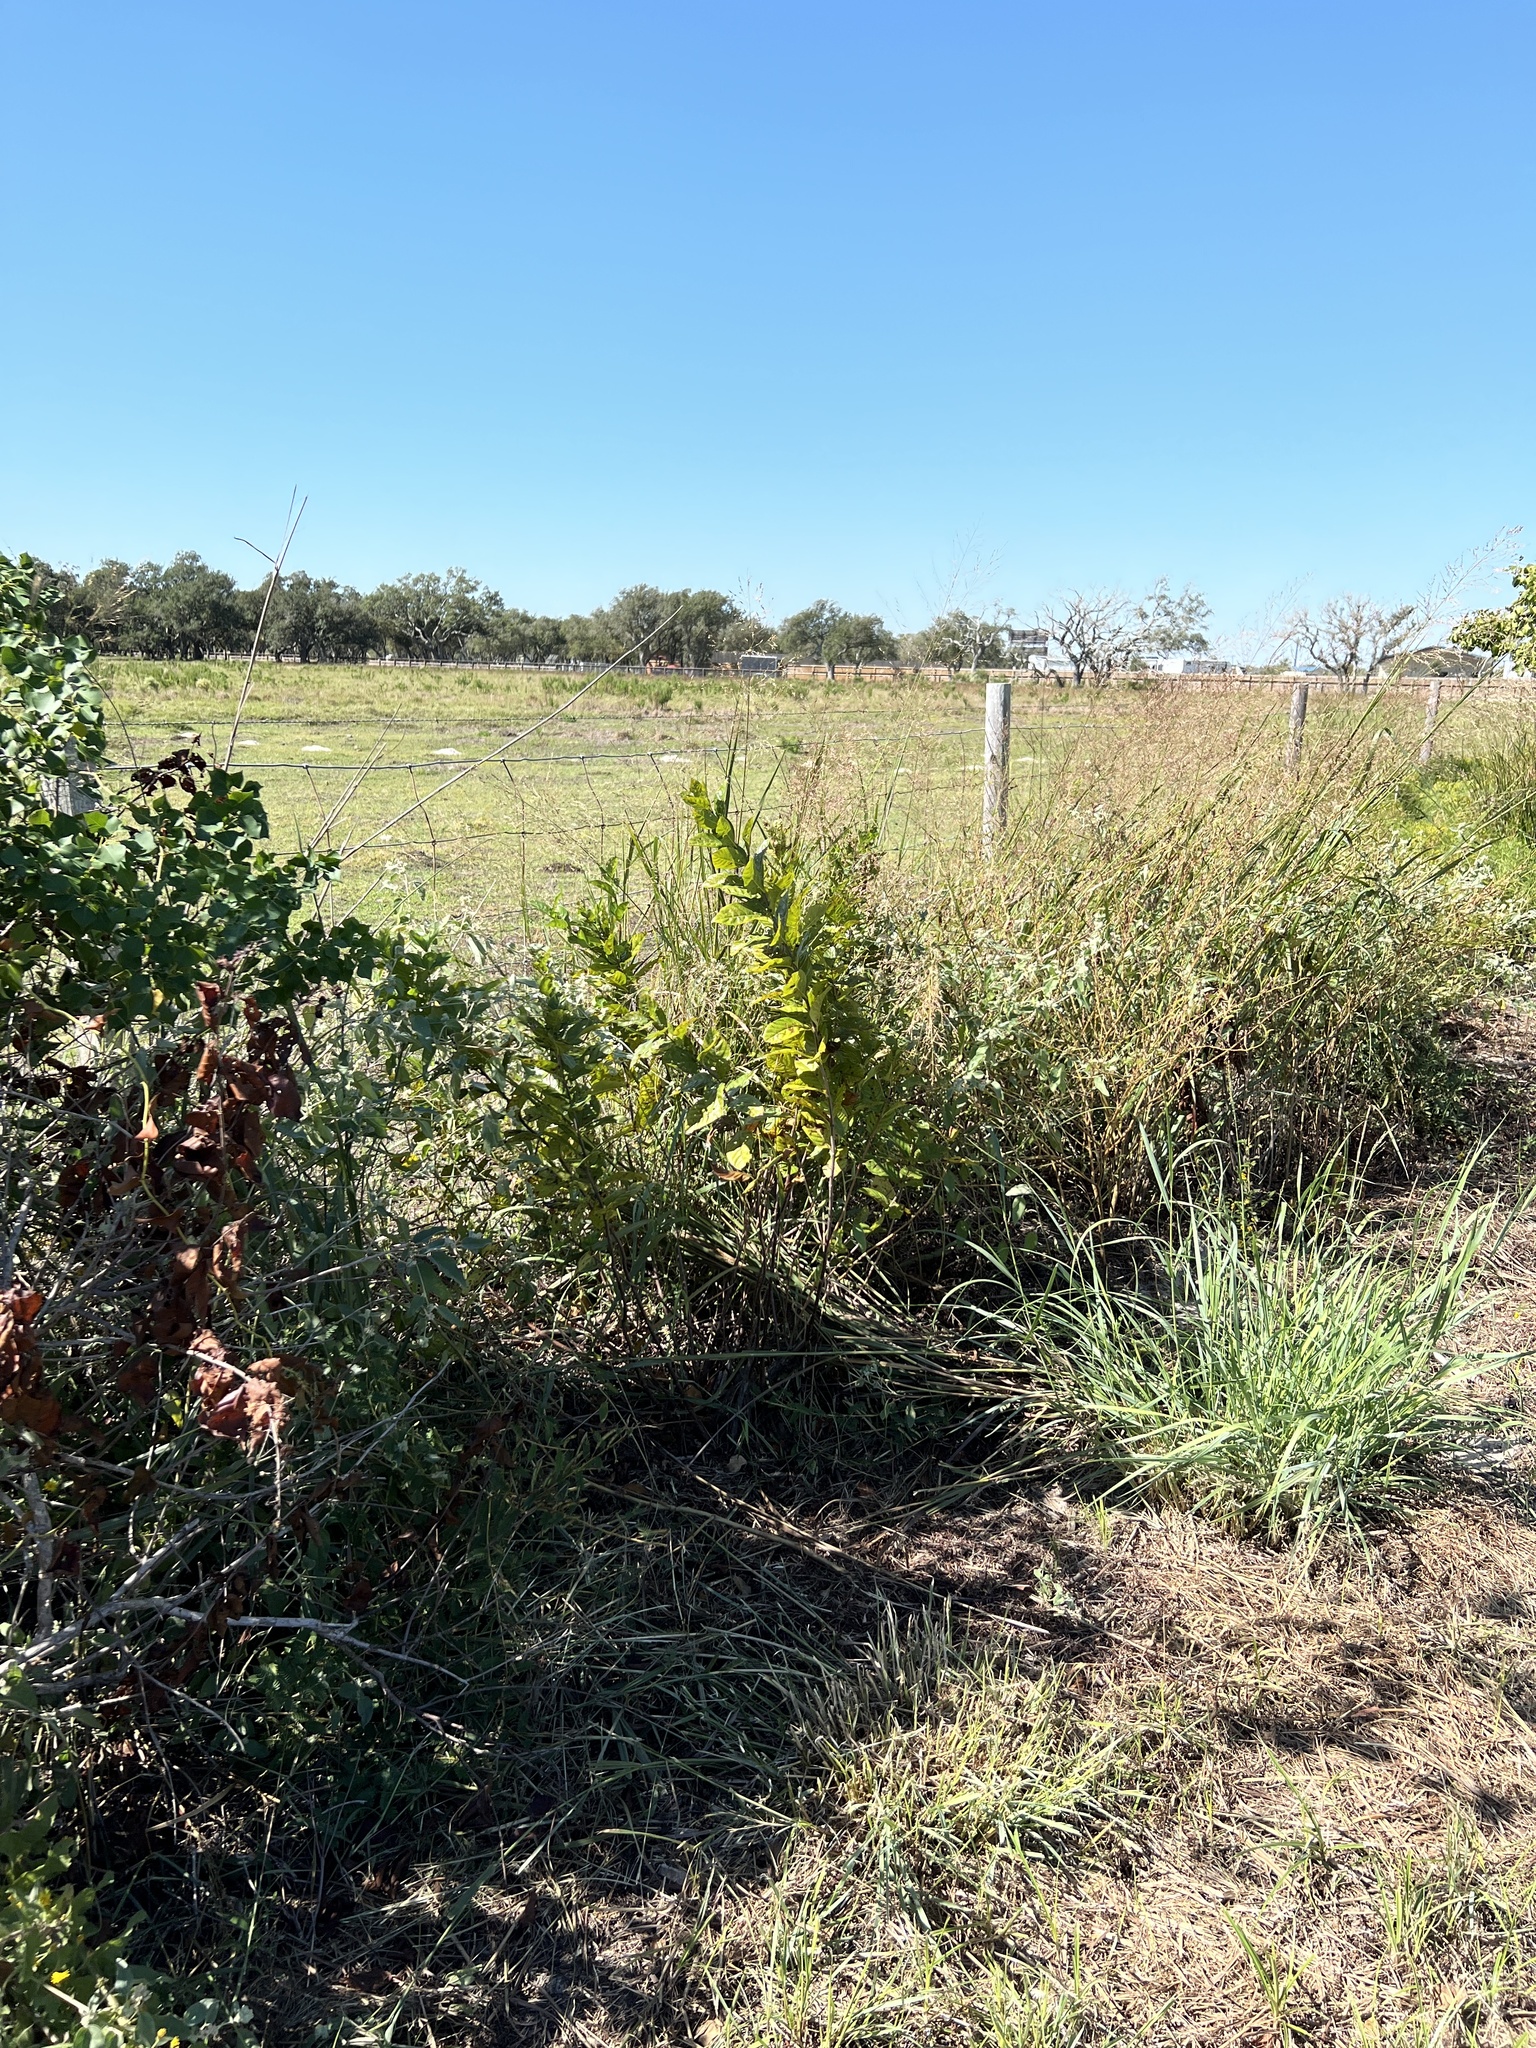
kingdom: Plantae
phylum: Tracheophyta
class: Magnoliopsida
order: Gentianales
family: Rubiaceae
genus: Cephalanthus
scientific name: Cephalanthus occidentalis
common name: Button-willow
